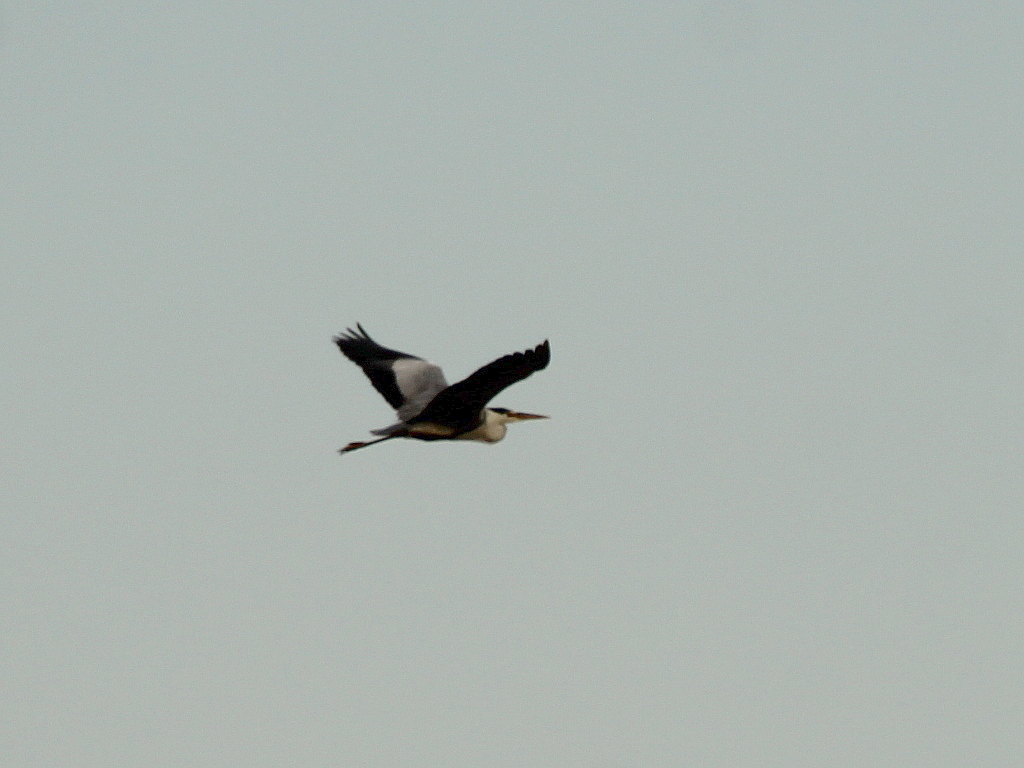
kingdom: Animalia
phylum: Chordata
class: Aves
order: Pelecaniformes
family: Ardeidae
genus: Ardea
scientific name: Ardea cinerea
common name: Grey heron
